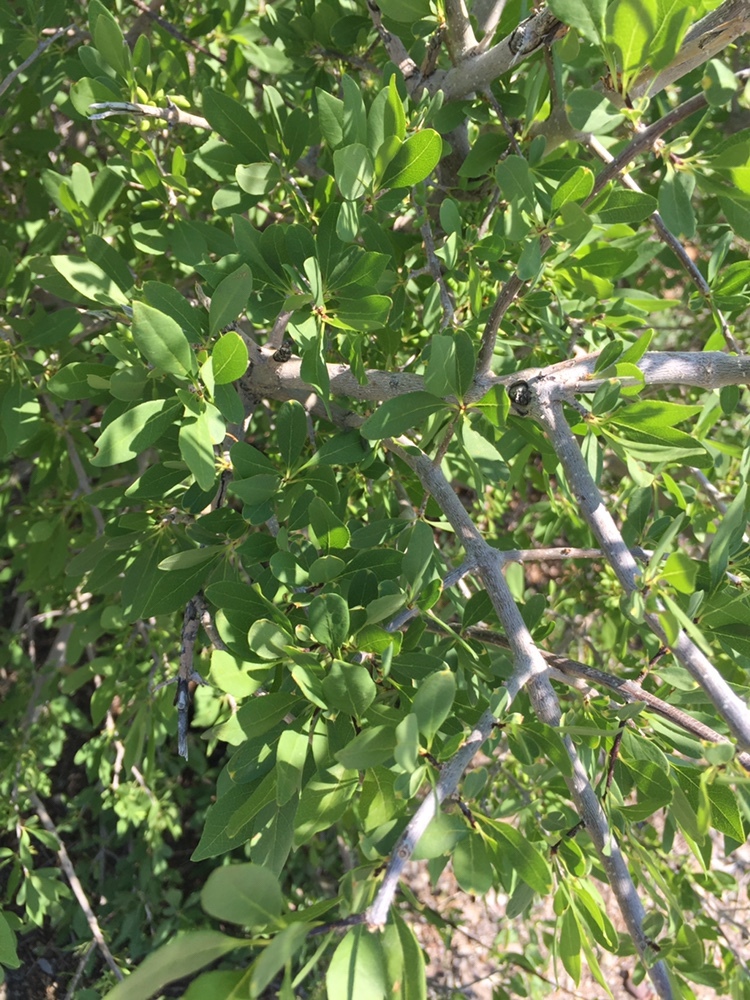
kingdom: Plantae
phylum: Tracheophyta
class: Magnoliopsida
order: Lamiales
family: Oleaceae
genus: Forestiera
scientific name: Forestiera pubescens
